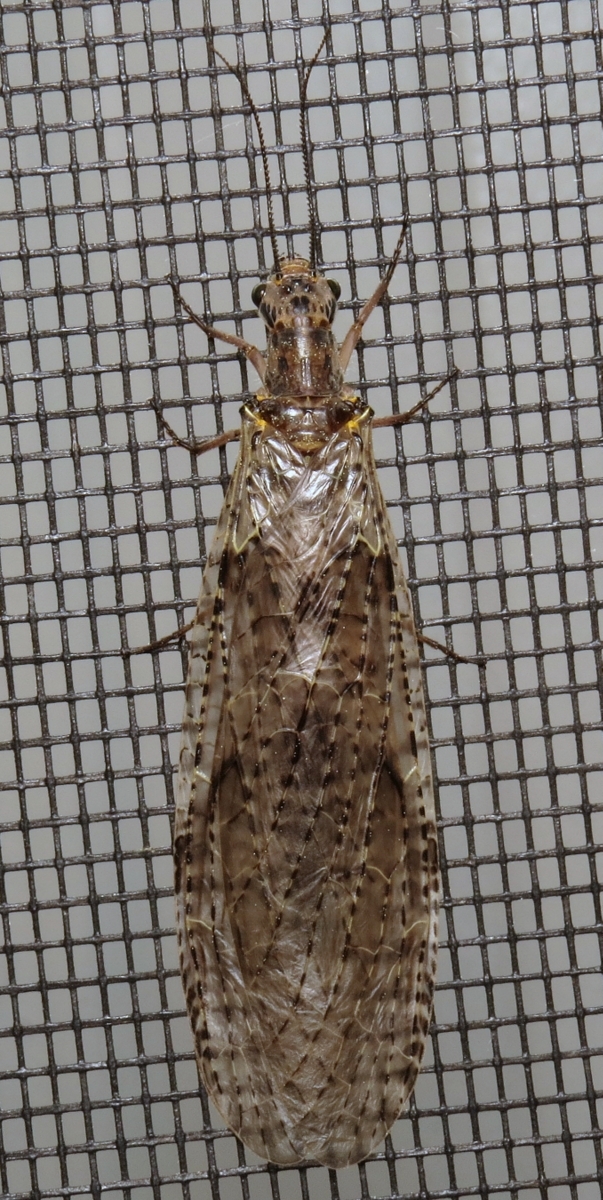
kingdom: Animalia
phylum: Arthropoda
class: Insecta
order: Megaloptera
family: Corydalidae
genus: Chauliodes
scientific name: Chauliodes rastricornis
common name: Spring fishfly
